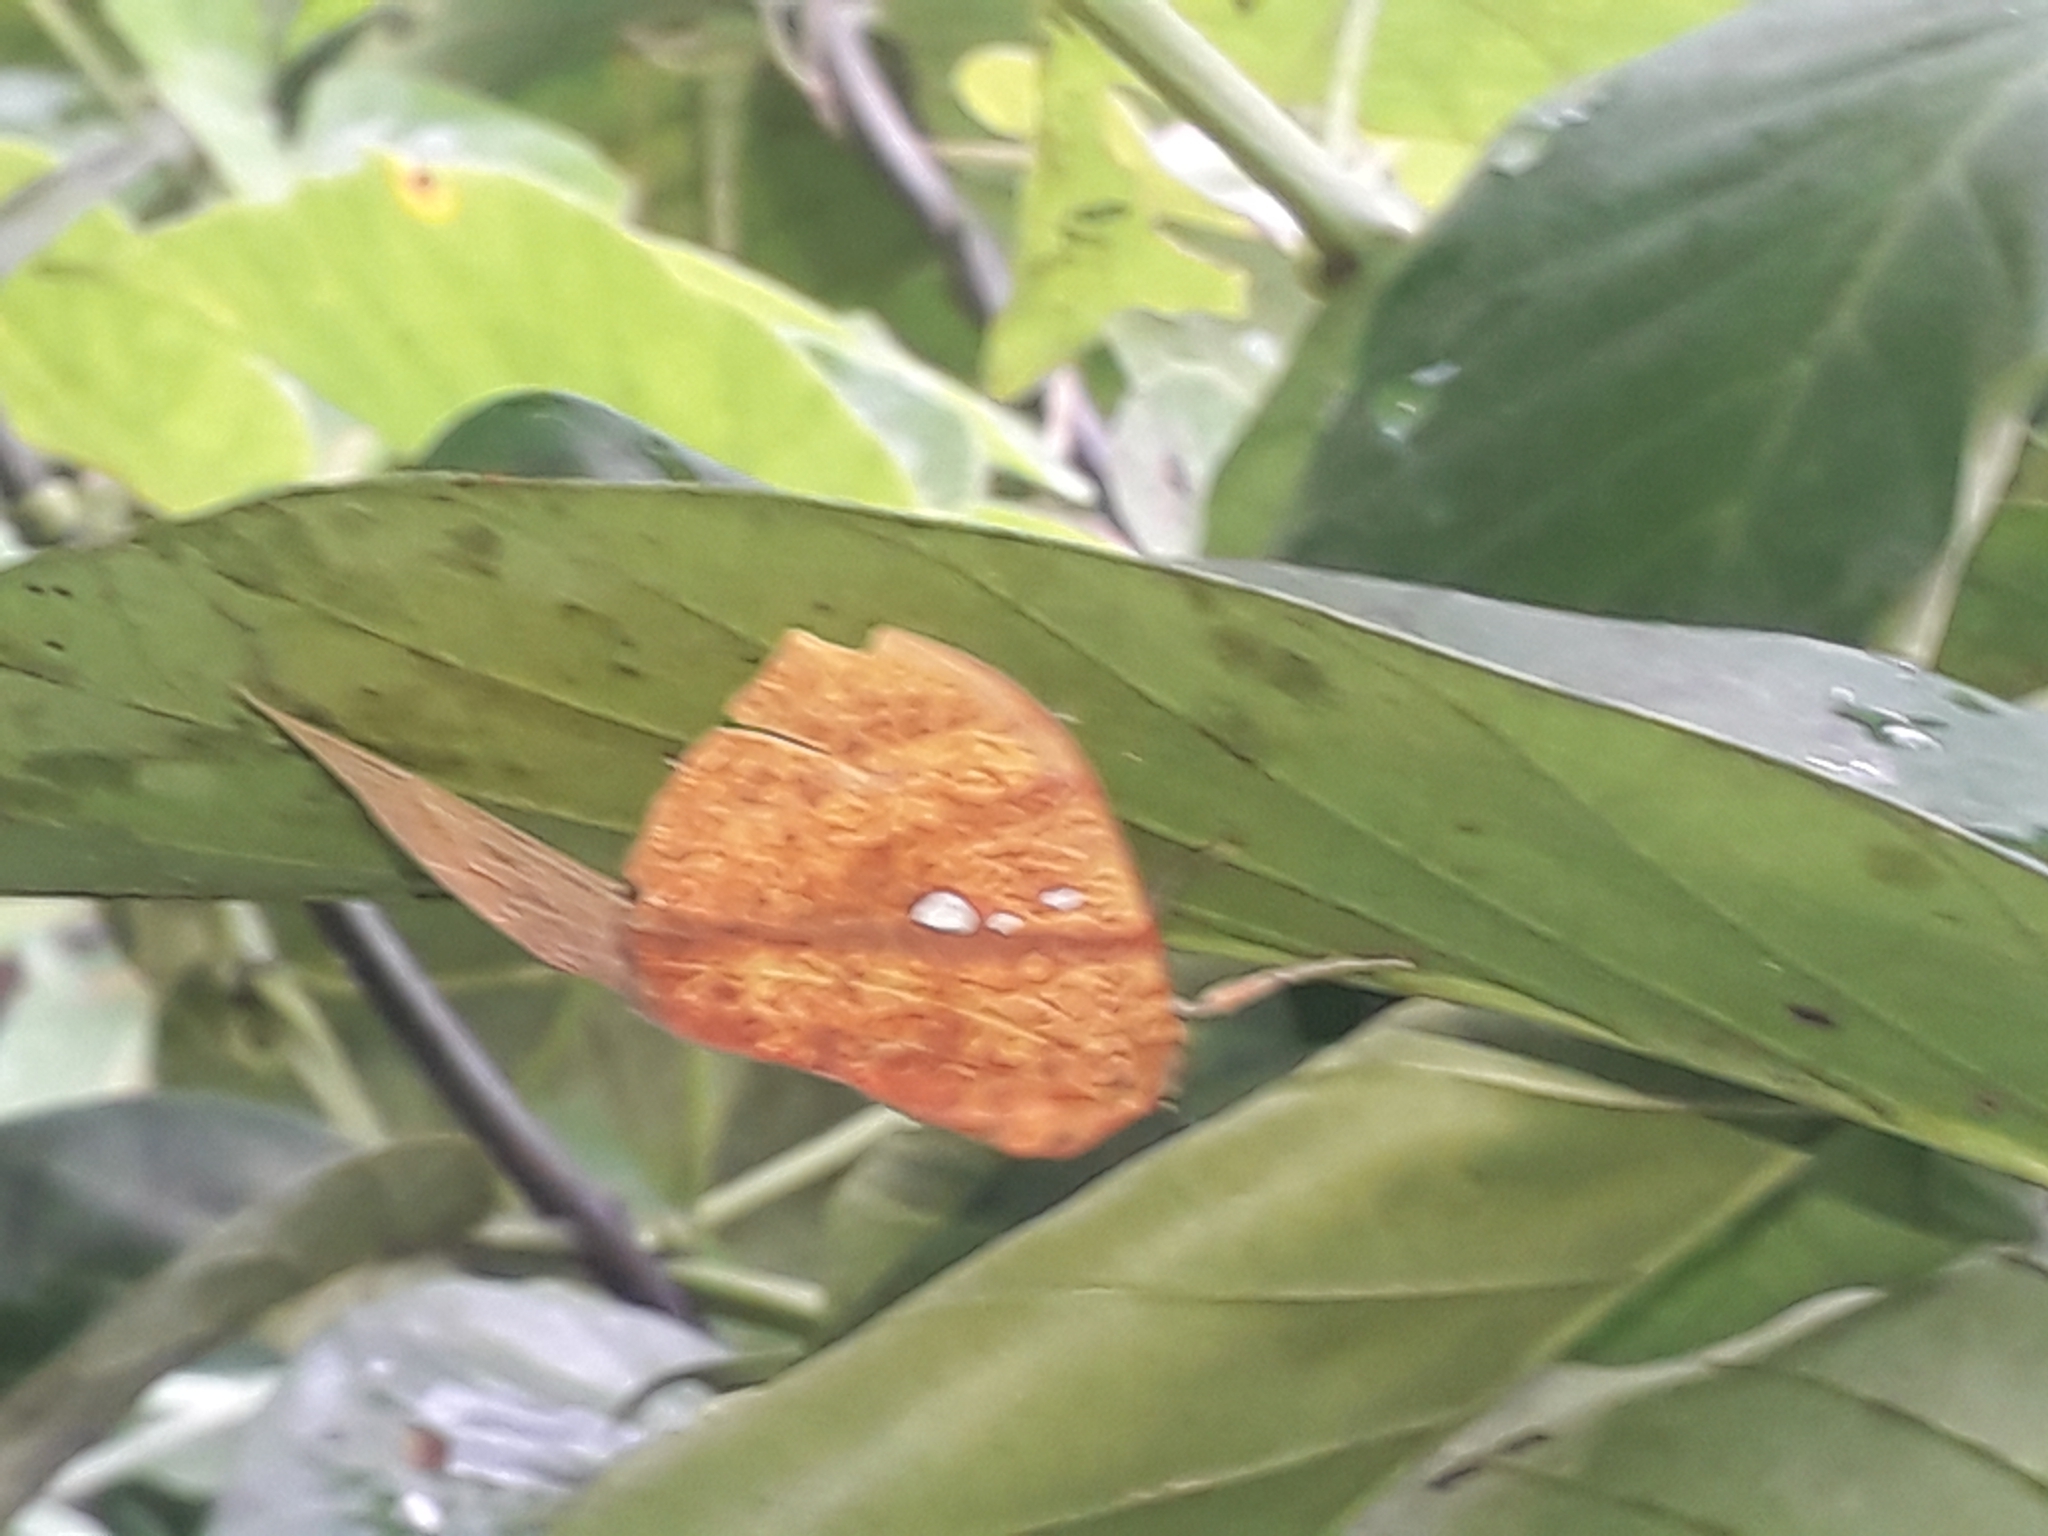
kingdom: Animalia
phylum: Arthropoda
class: Insecta
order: Lepidoptera
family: Erebidae
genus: Miniodes
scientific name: Miniodes discolor
